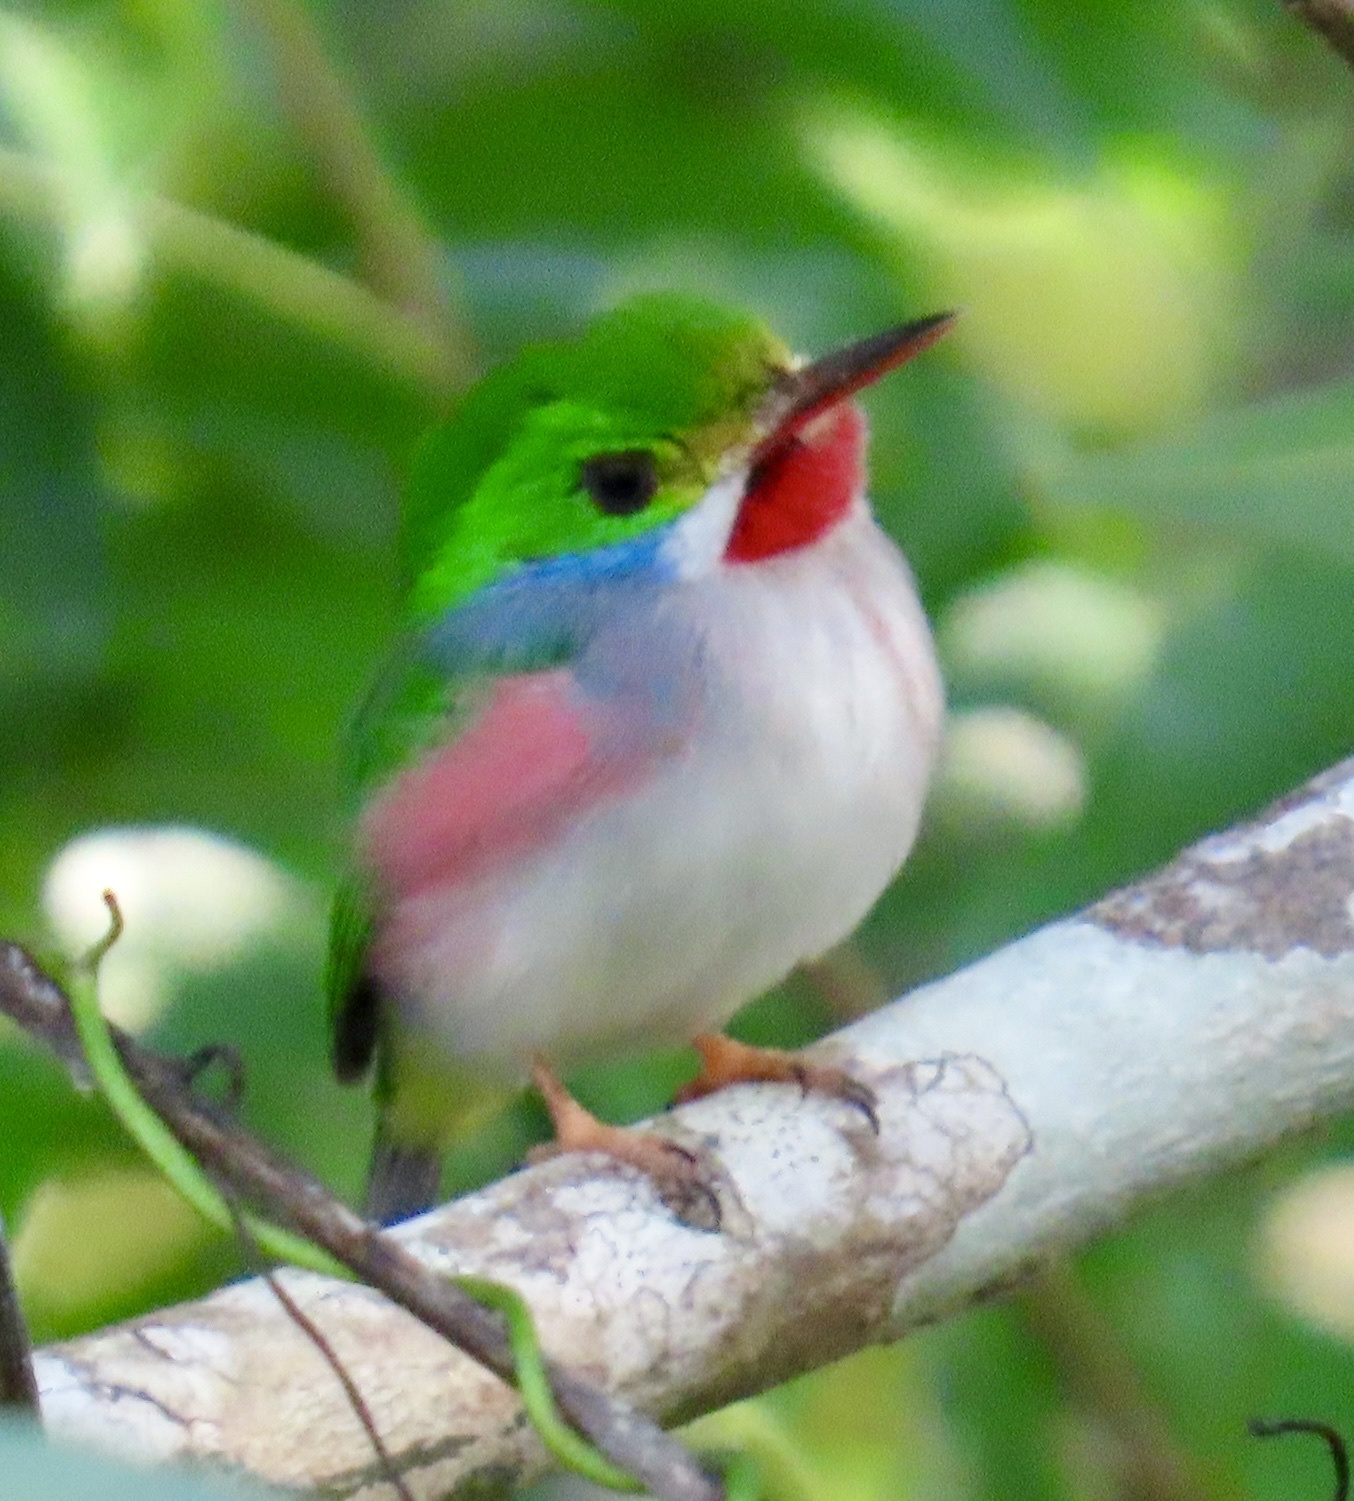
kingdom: Animalia
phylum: Chordata
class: Aves
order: Coraciiformes
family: Todidae
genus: Todus
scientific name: Todus multicolor
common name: Cuban tody
